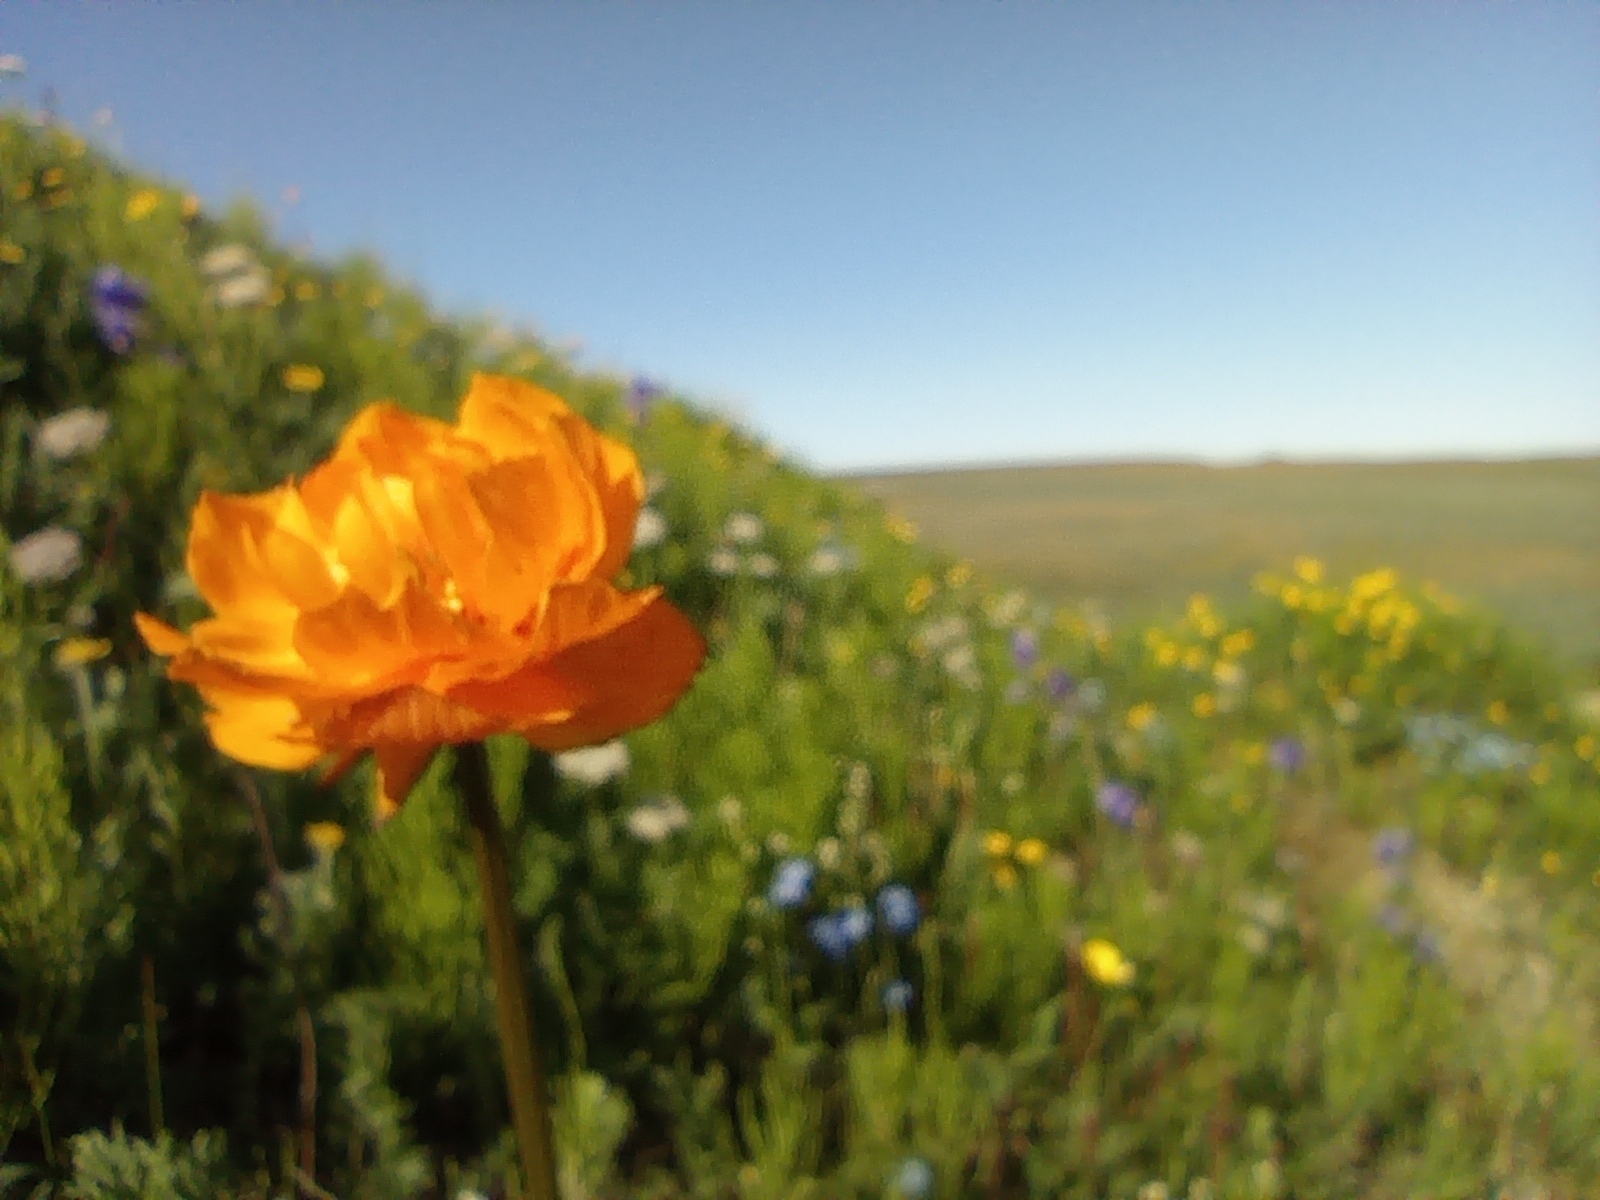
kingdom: Plantae
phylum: Tracheophyta
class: Magnoliopsida
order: Ranunculales
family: Ranunculaceae
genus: Trollius
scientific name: Trollius asiaticus
